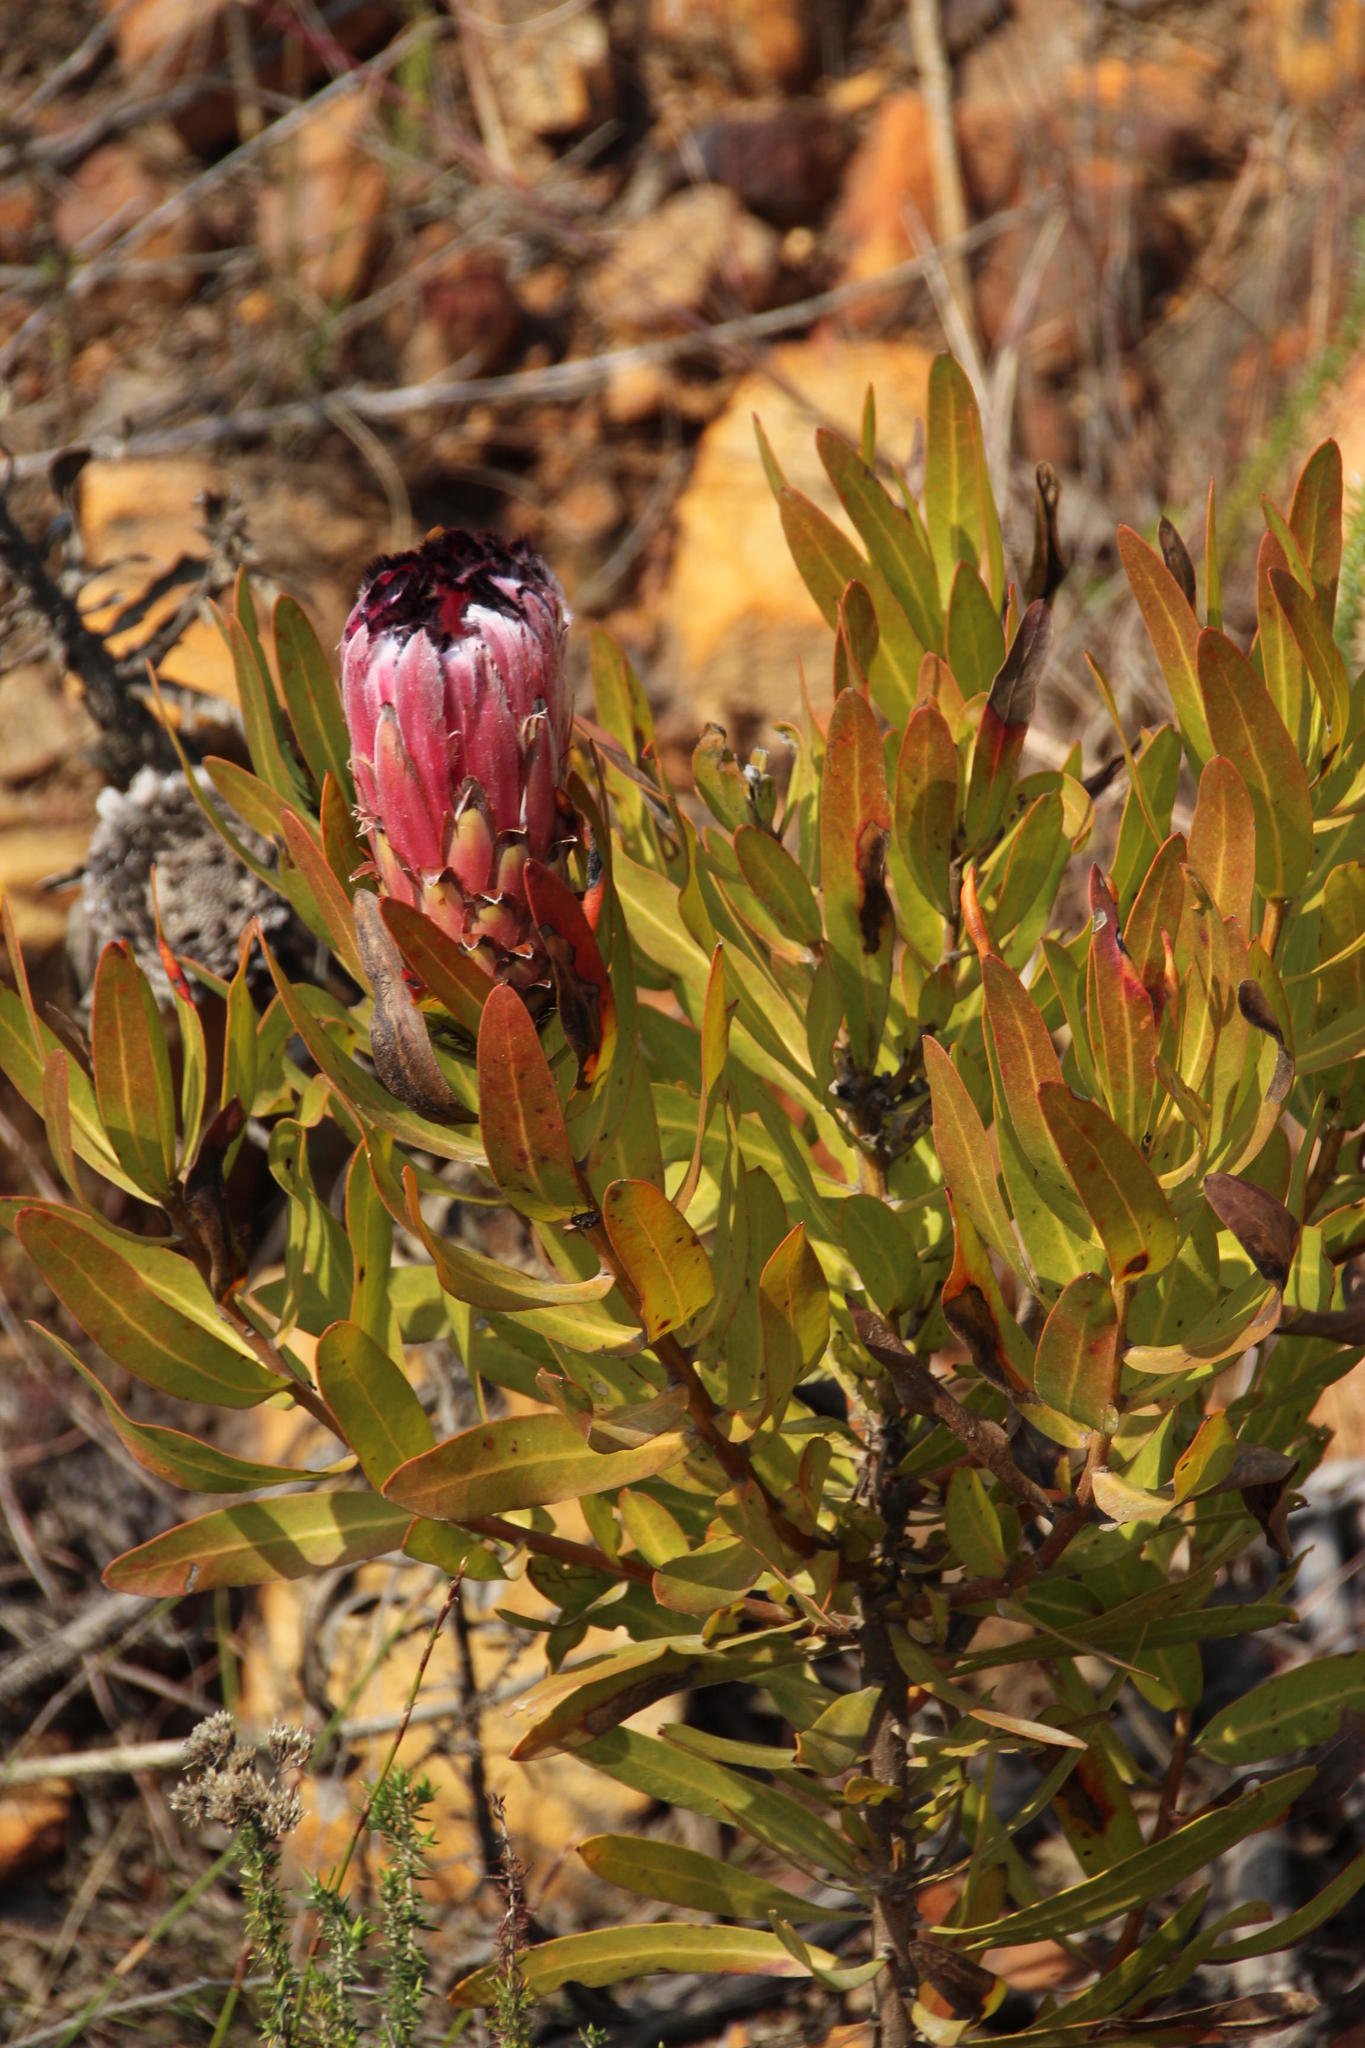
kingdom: Plantae
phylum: Tracheophyta
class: Magnoliopsida
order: Proteales
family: Proteaceae
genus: Protea
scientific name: Protea neriifolia
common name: Blue sugarbush
